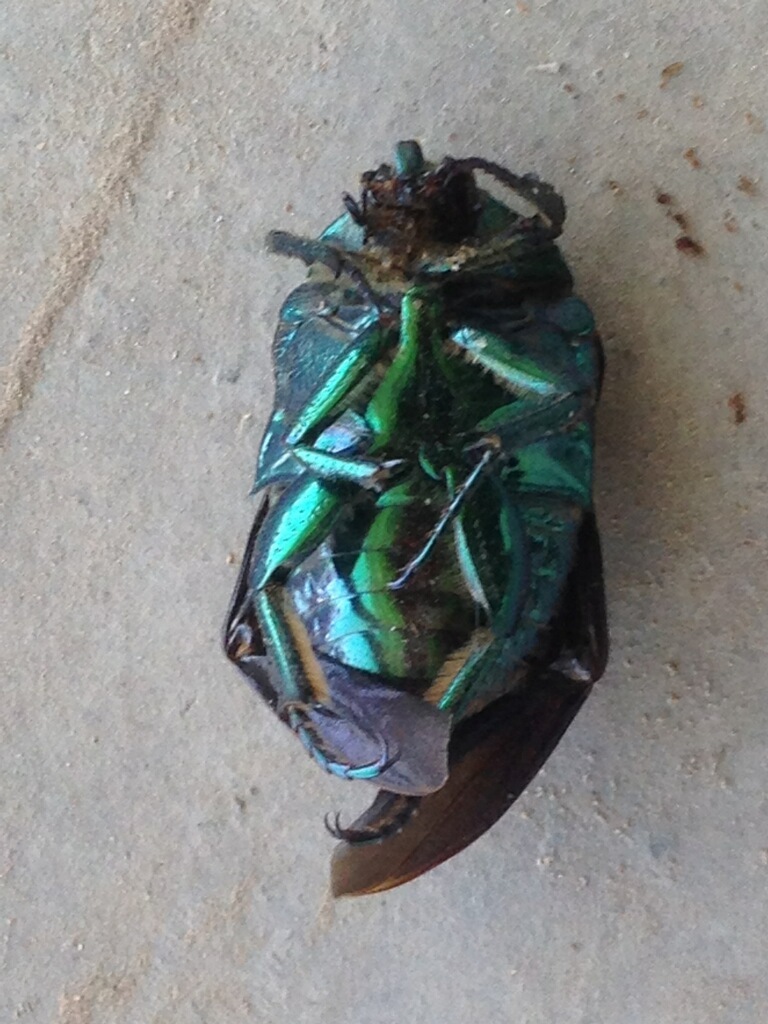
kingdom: Animalia
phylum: Arthropoda
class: Insecta
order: Coleoptera
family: Scarabaeidae
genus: Cotinis
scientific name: Cotinis mutabilis
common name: Figeater beetle
